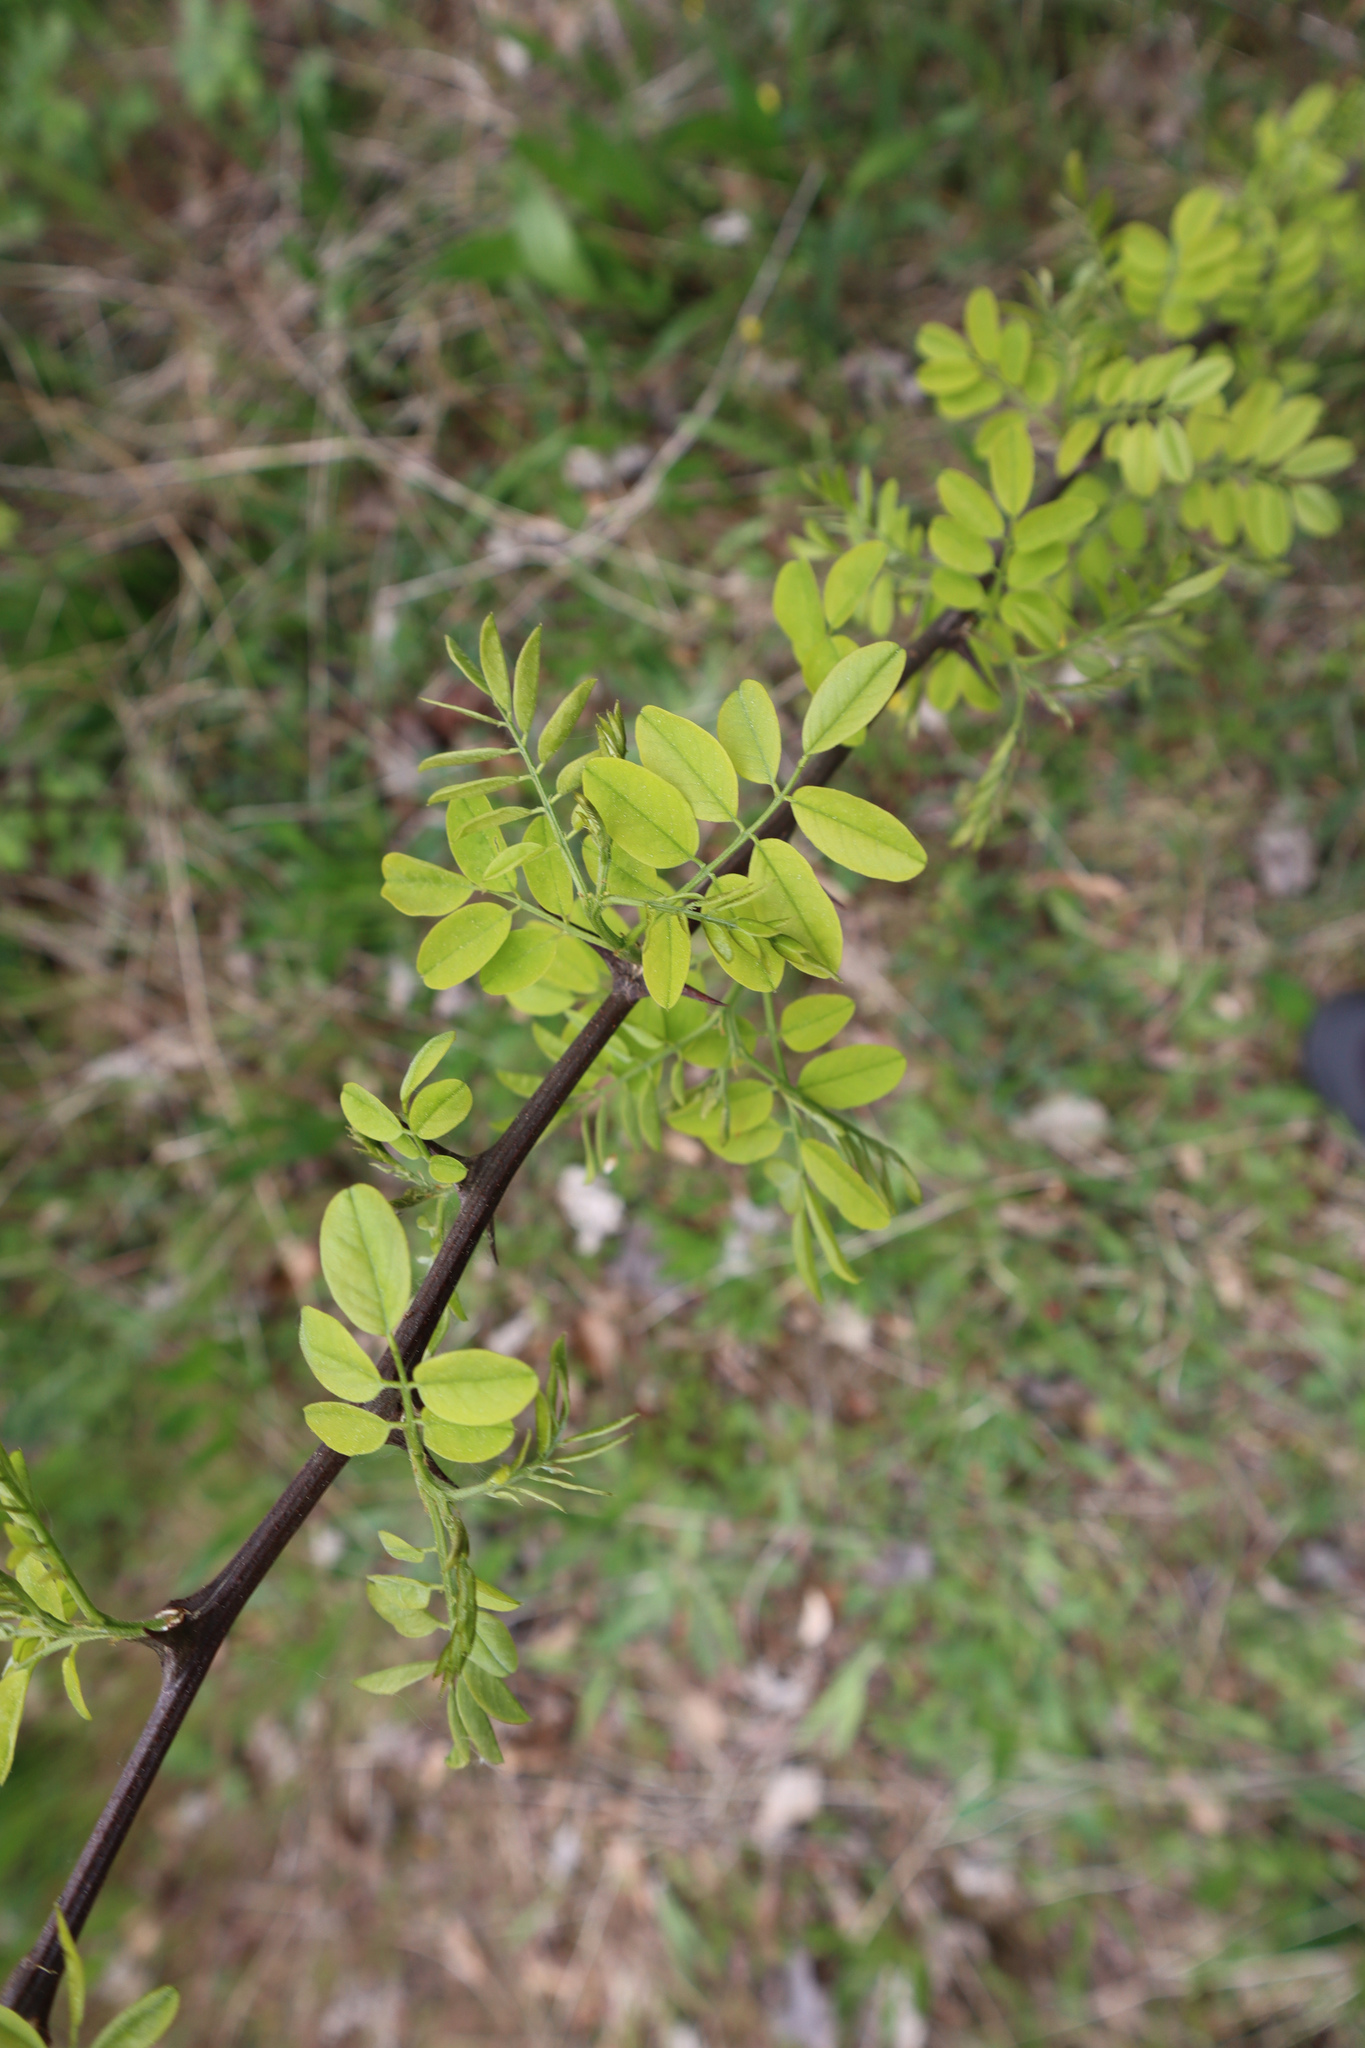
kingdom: Plantae
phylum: Tracheophyta
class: Magnoliopsida
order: Fabales
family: Fabaceae
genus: Robinia
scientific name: Robinia pseudoacacia
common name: Black locust
